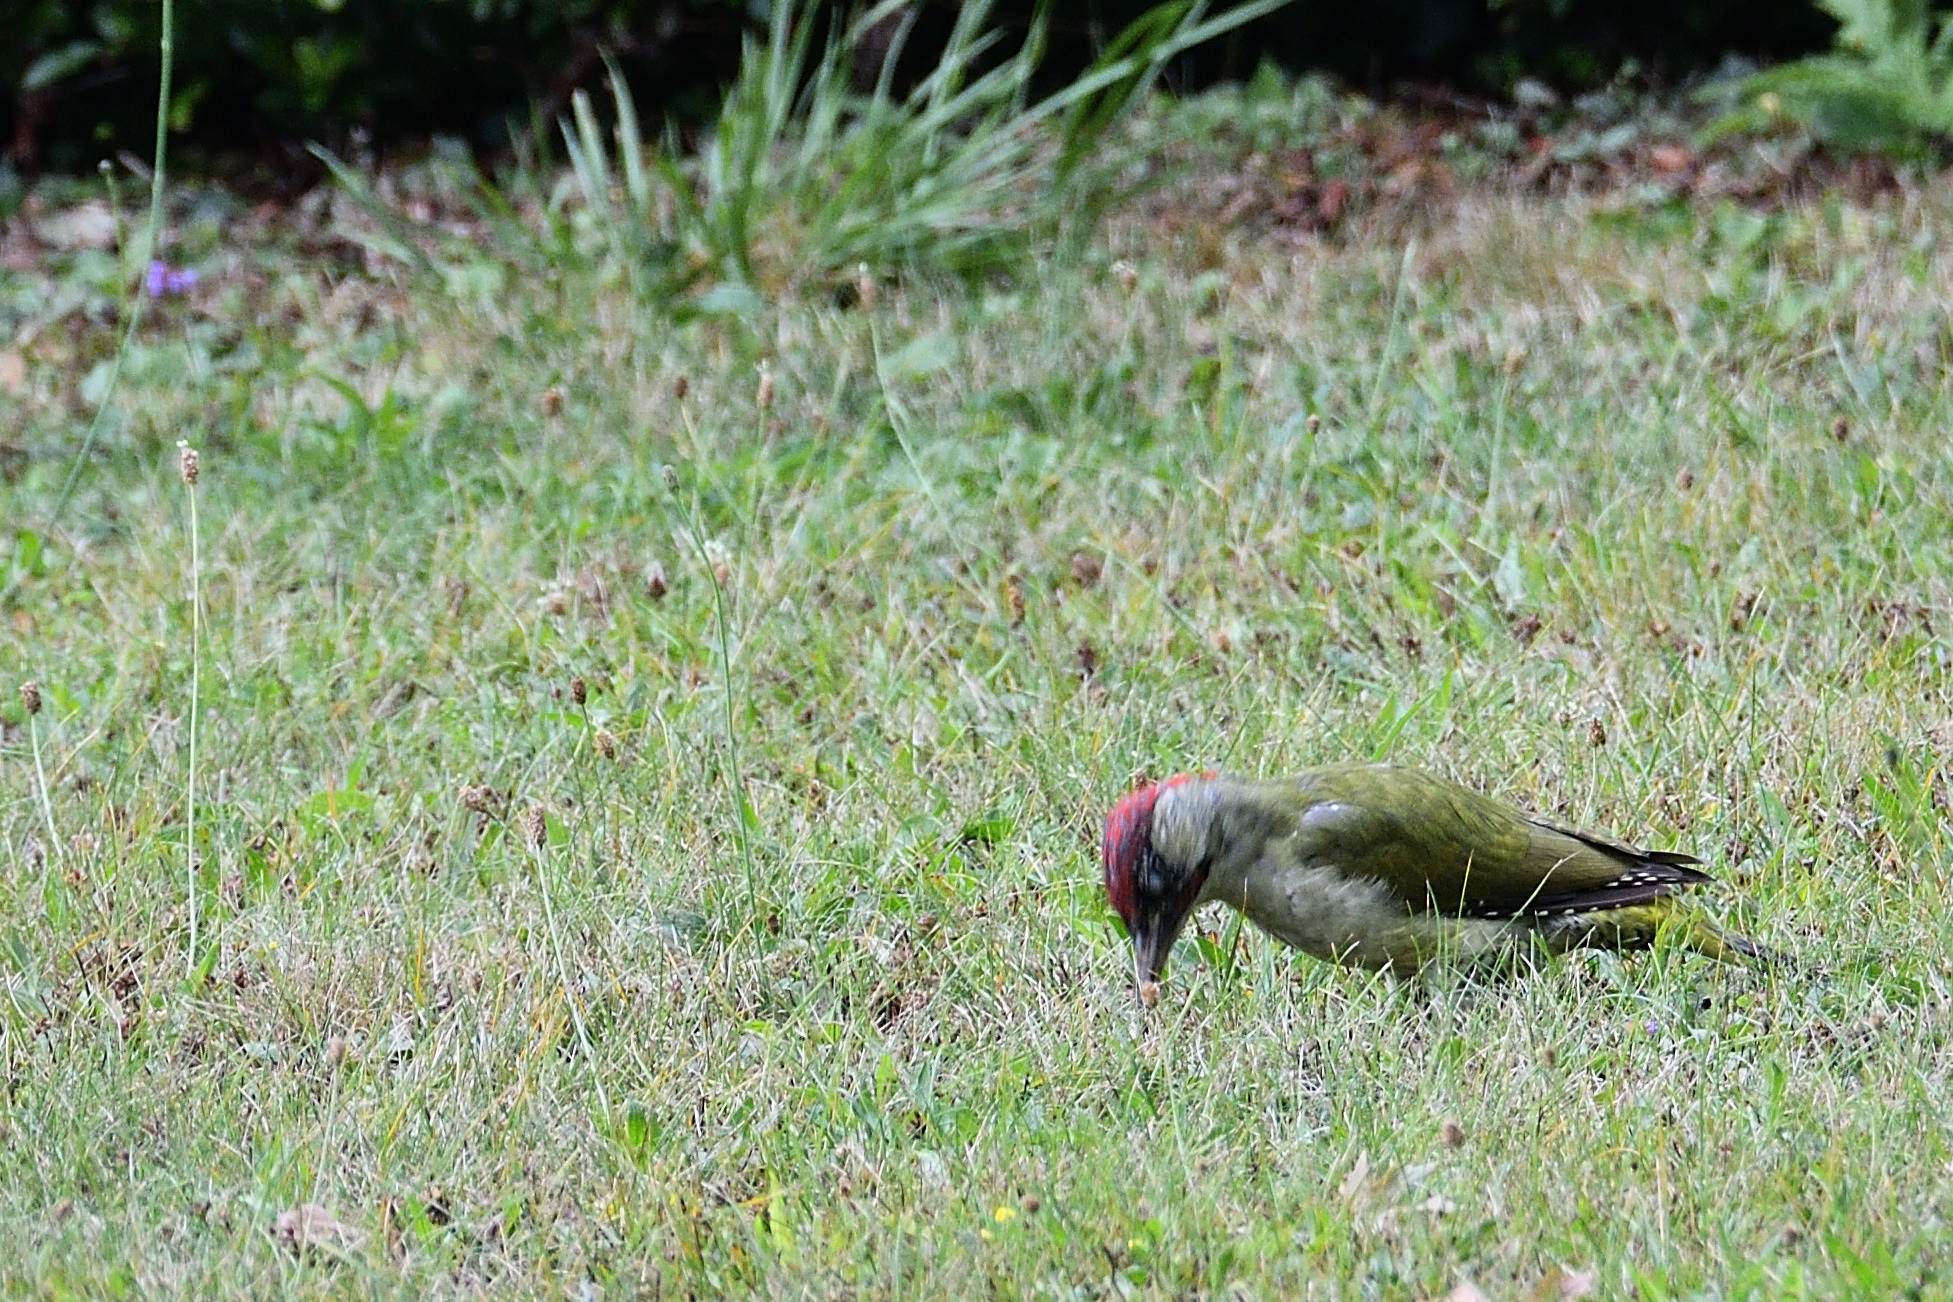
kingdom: Animalia
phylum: Chordata
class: Aves
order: Piciformes
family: Picidae
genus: Picus
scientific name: Picus viridis
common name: European green woodpecker
